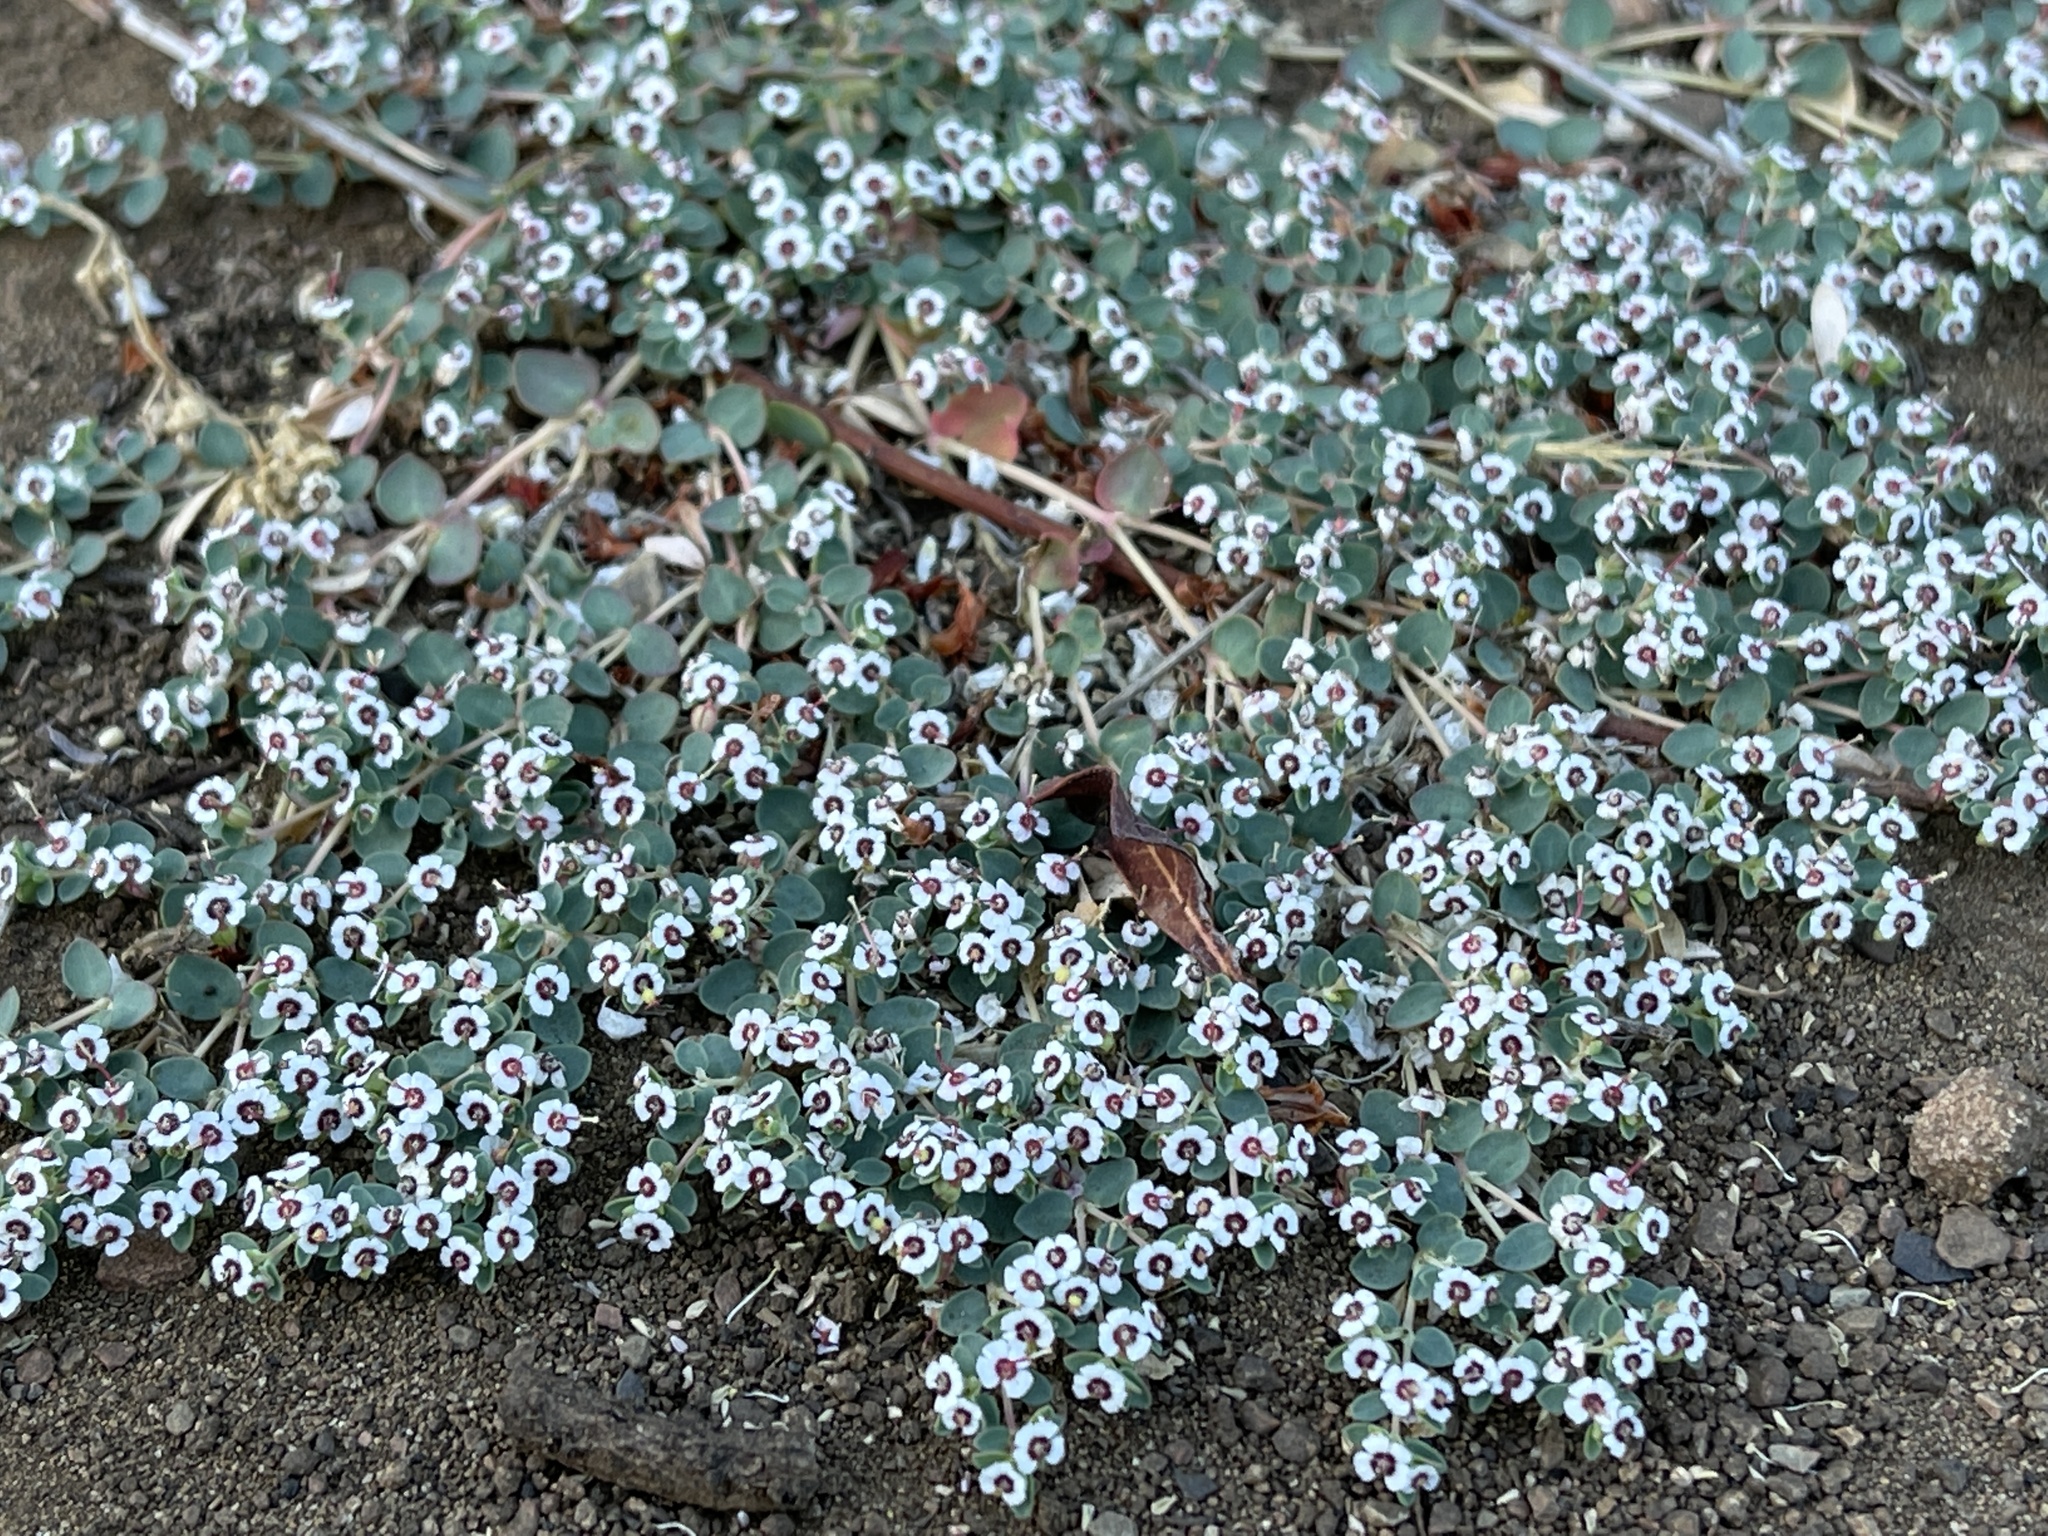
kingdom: Plantae
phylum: Tracheophyta
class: Magnoliopsida
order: Malpighiales
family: Euphorbiaceae
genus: Euphorbia
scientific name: Euphorbia polycarpa
